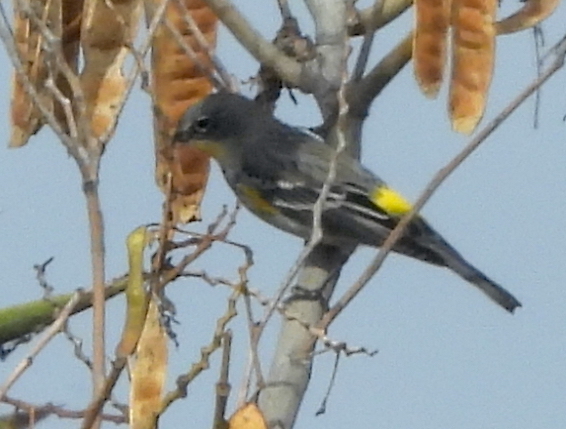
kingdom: Animalia
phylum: Chordata
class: Aves
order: Passeriformes
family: Parulidae
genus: Setophaga
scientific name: Setophaga
